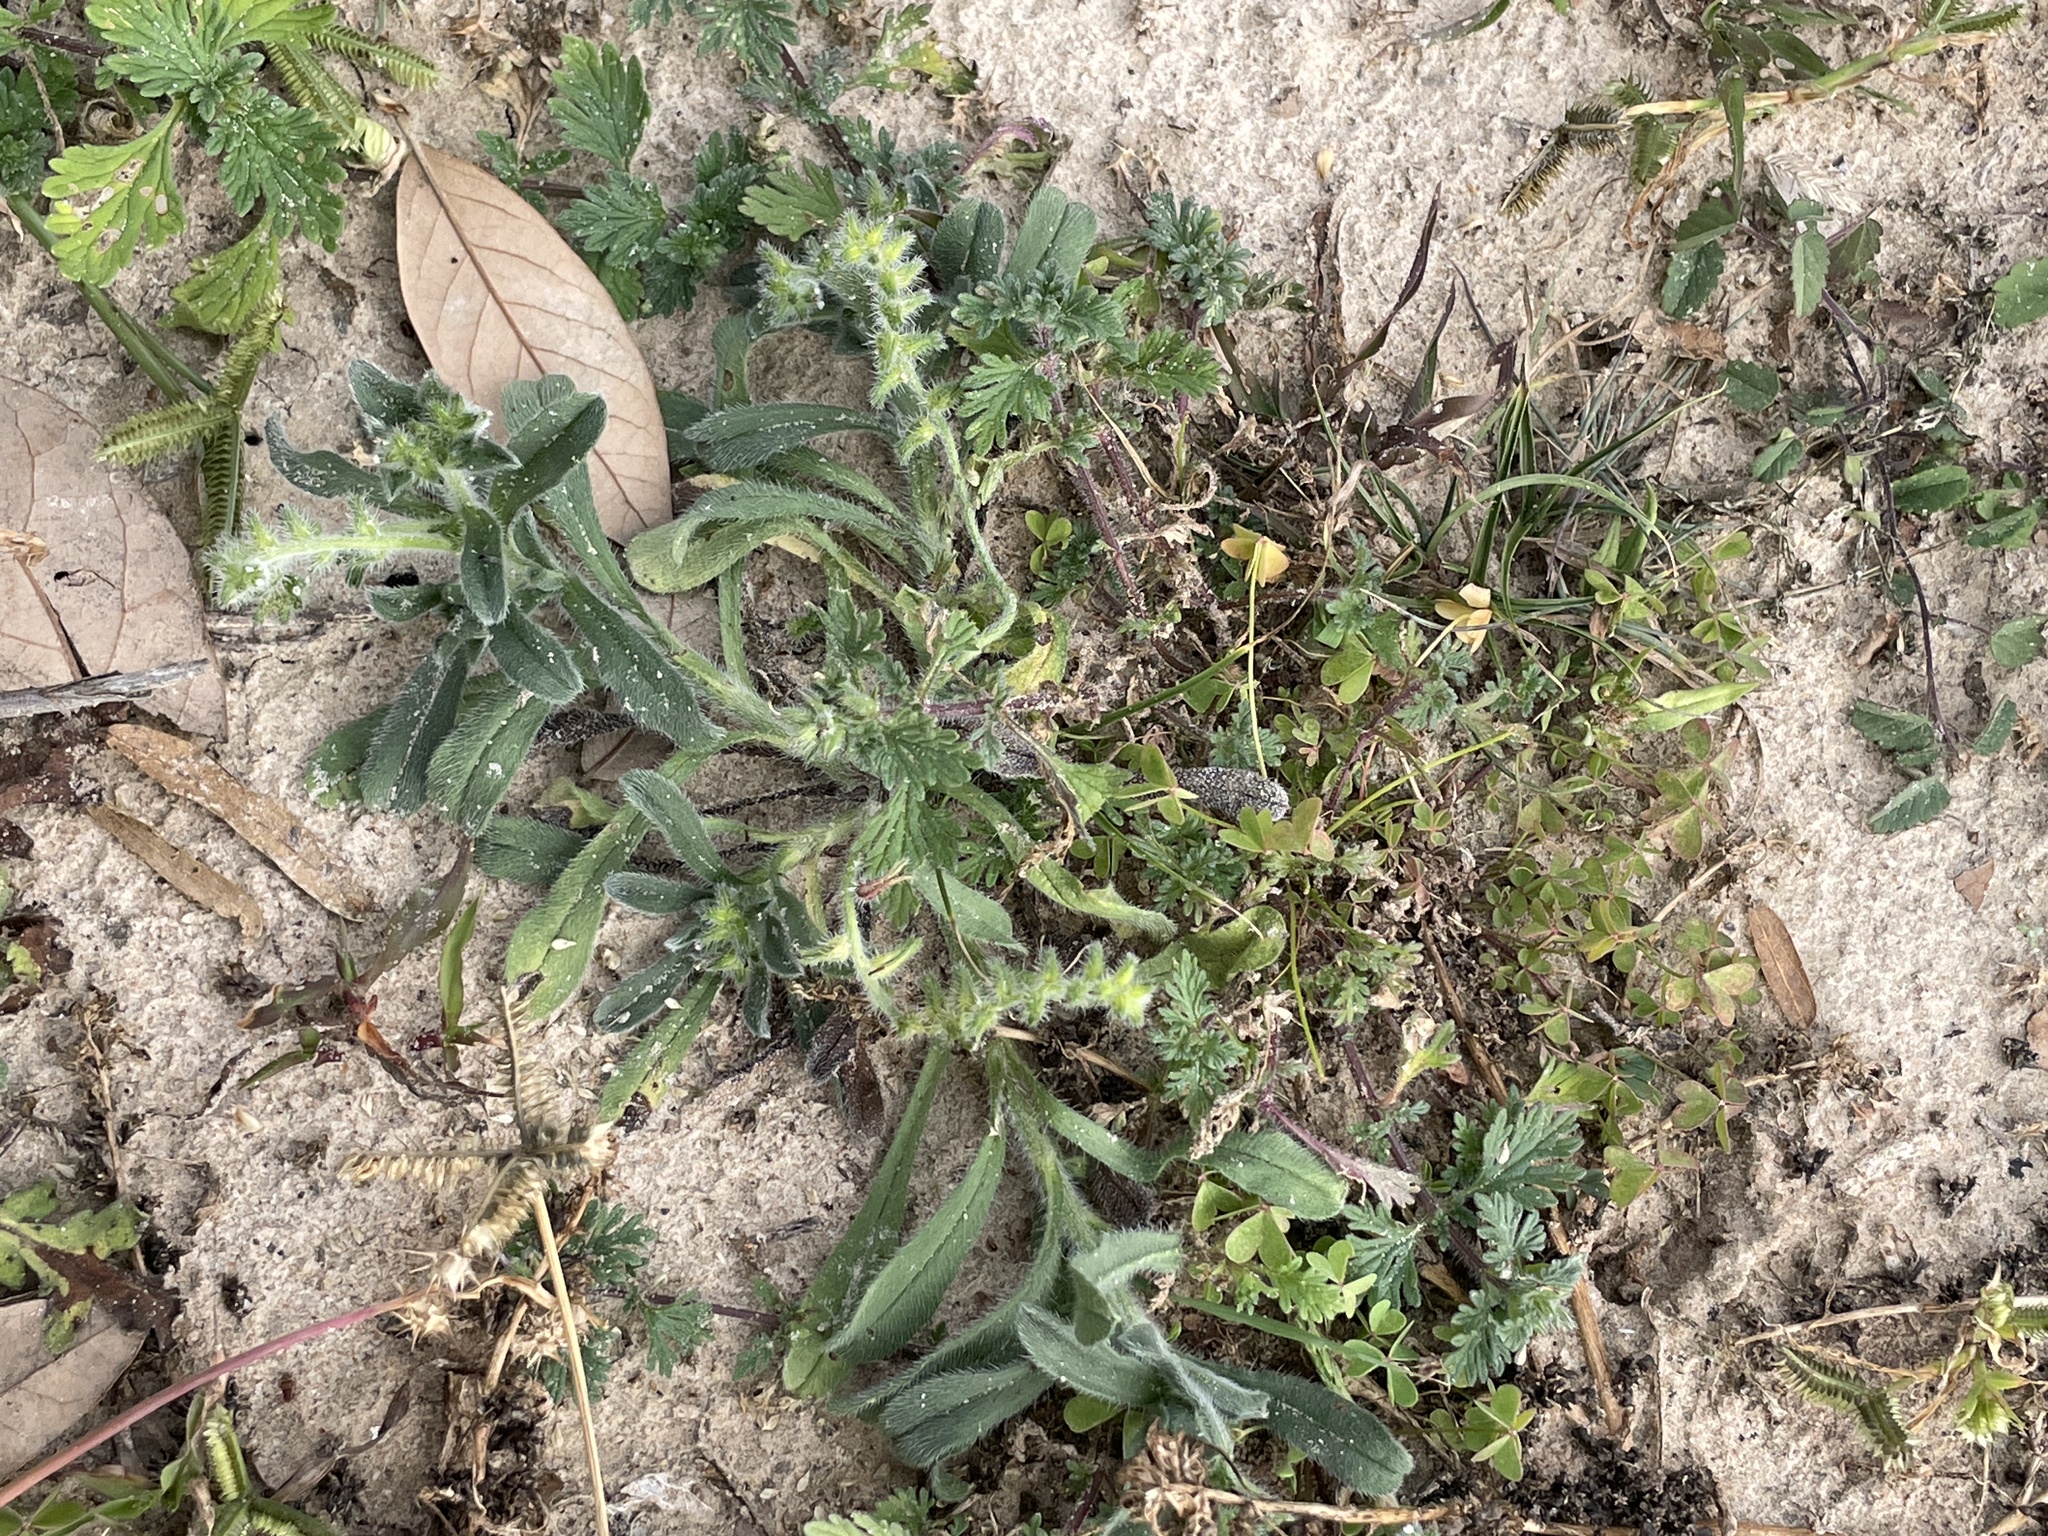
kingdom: Plantae
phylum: Tracheophyta
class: Magnoliopsida
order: Boraginales
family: Boraginaceae
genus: Cryptantha
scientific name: Cryptantha texana
